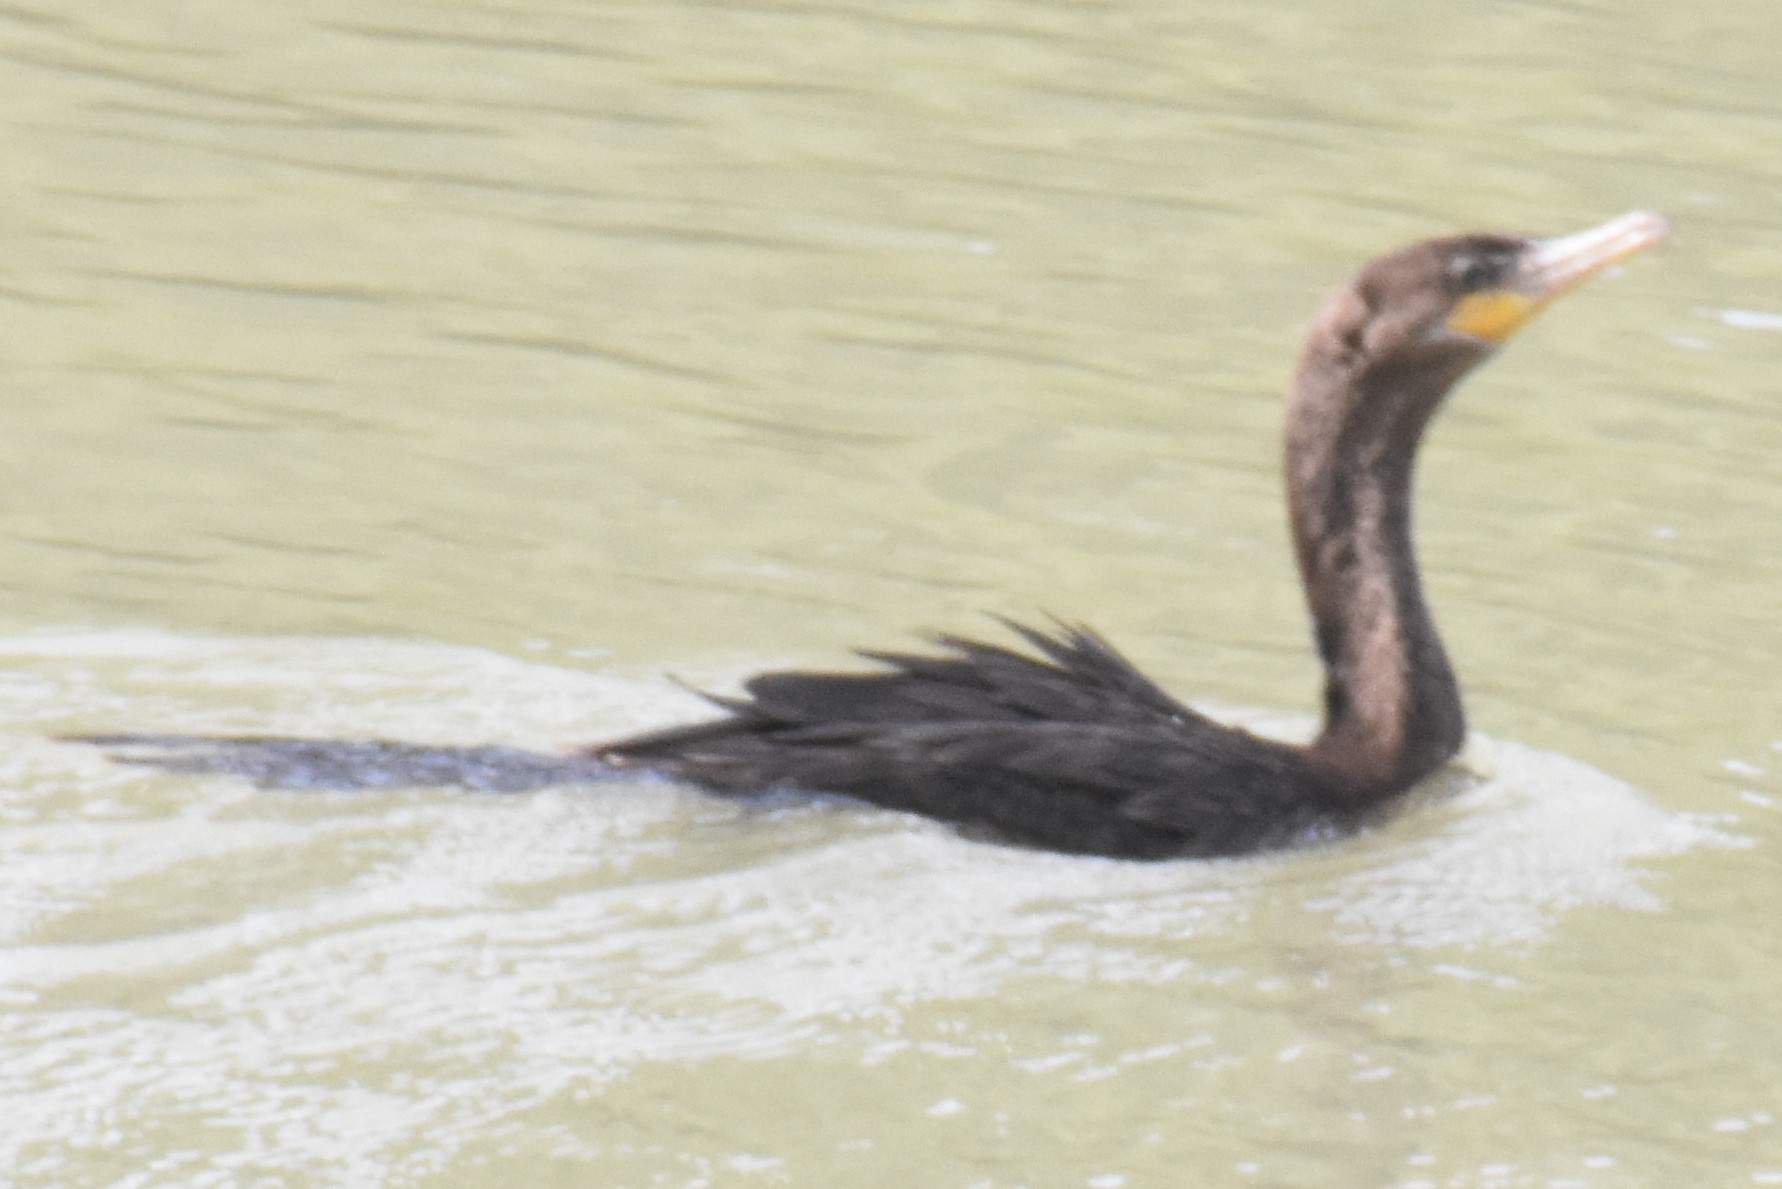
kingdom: Animalia
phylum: Chordata
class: Aves
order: Suliformes
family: Phalacrocoracidae
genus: Phalacrocorax
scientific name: Phalacrocorax brasilianus
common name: Neotropic cormorant
